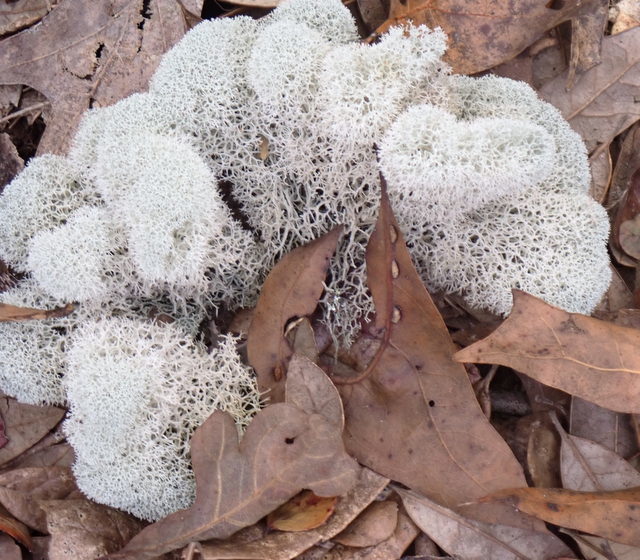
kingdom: Fungi
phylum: Ascomycota
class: Lecanoromycetes
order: Lecanorales
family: Cladoniaceae
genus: Cladonia
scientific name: Cladonia evansii
